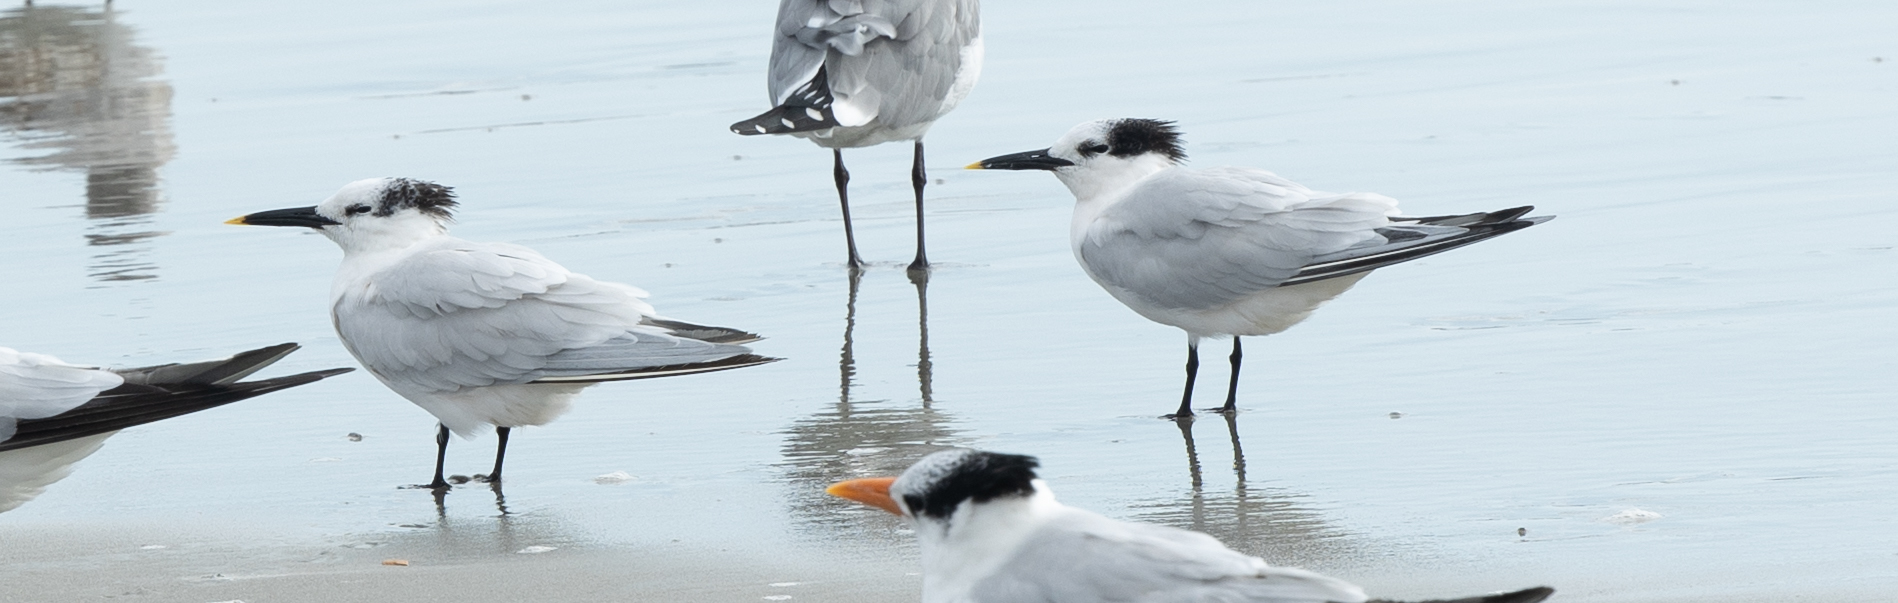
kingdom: Animalia
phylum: Chordata
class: Aves
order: Charadriiformes
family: Laridae
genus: Thalasseus
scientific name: Thalasseus sandvicensis
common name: Sandwich tern
